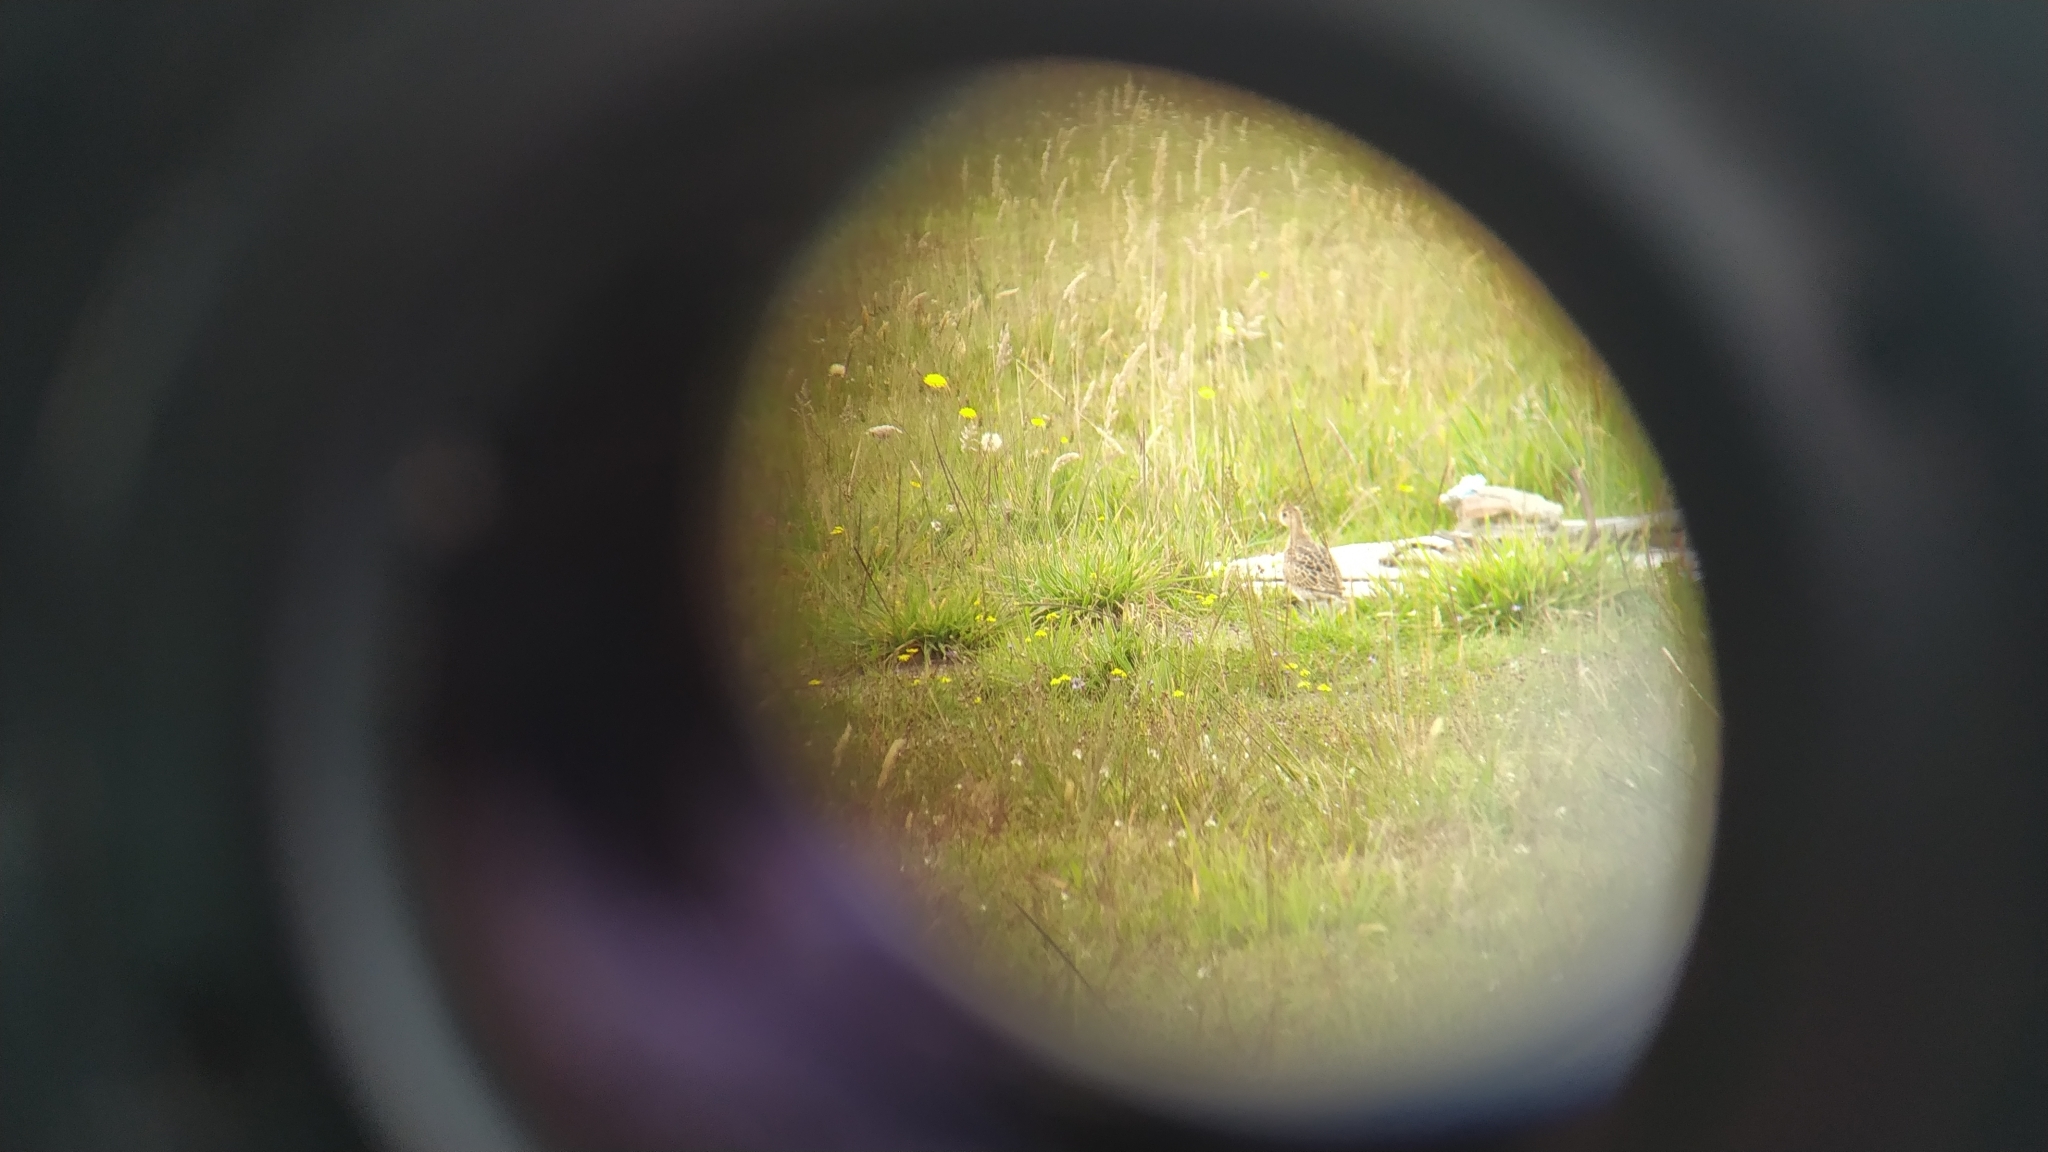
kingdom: Animalia
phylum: Chordata
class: Aves
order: Charadriiformes
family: Scolopacidae
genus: Bartramia
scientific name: Bartramia longicauda
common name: Upland sandpiper
